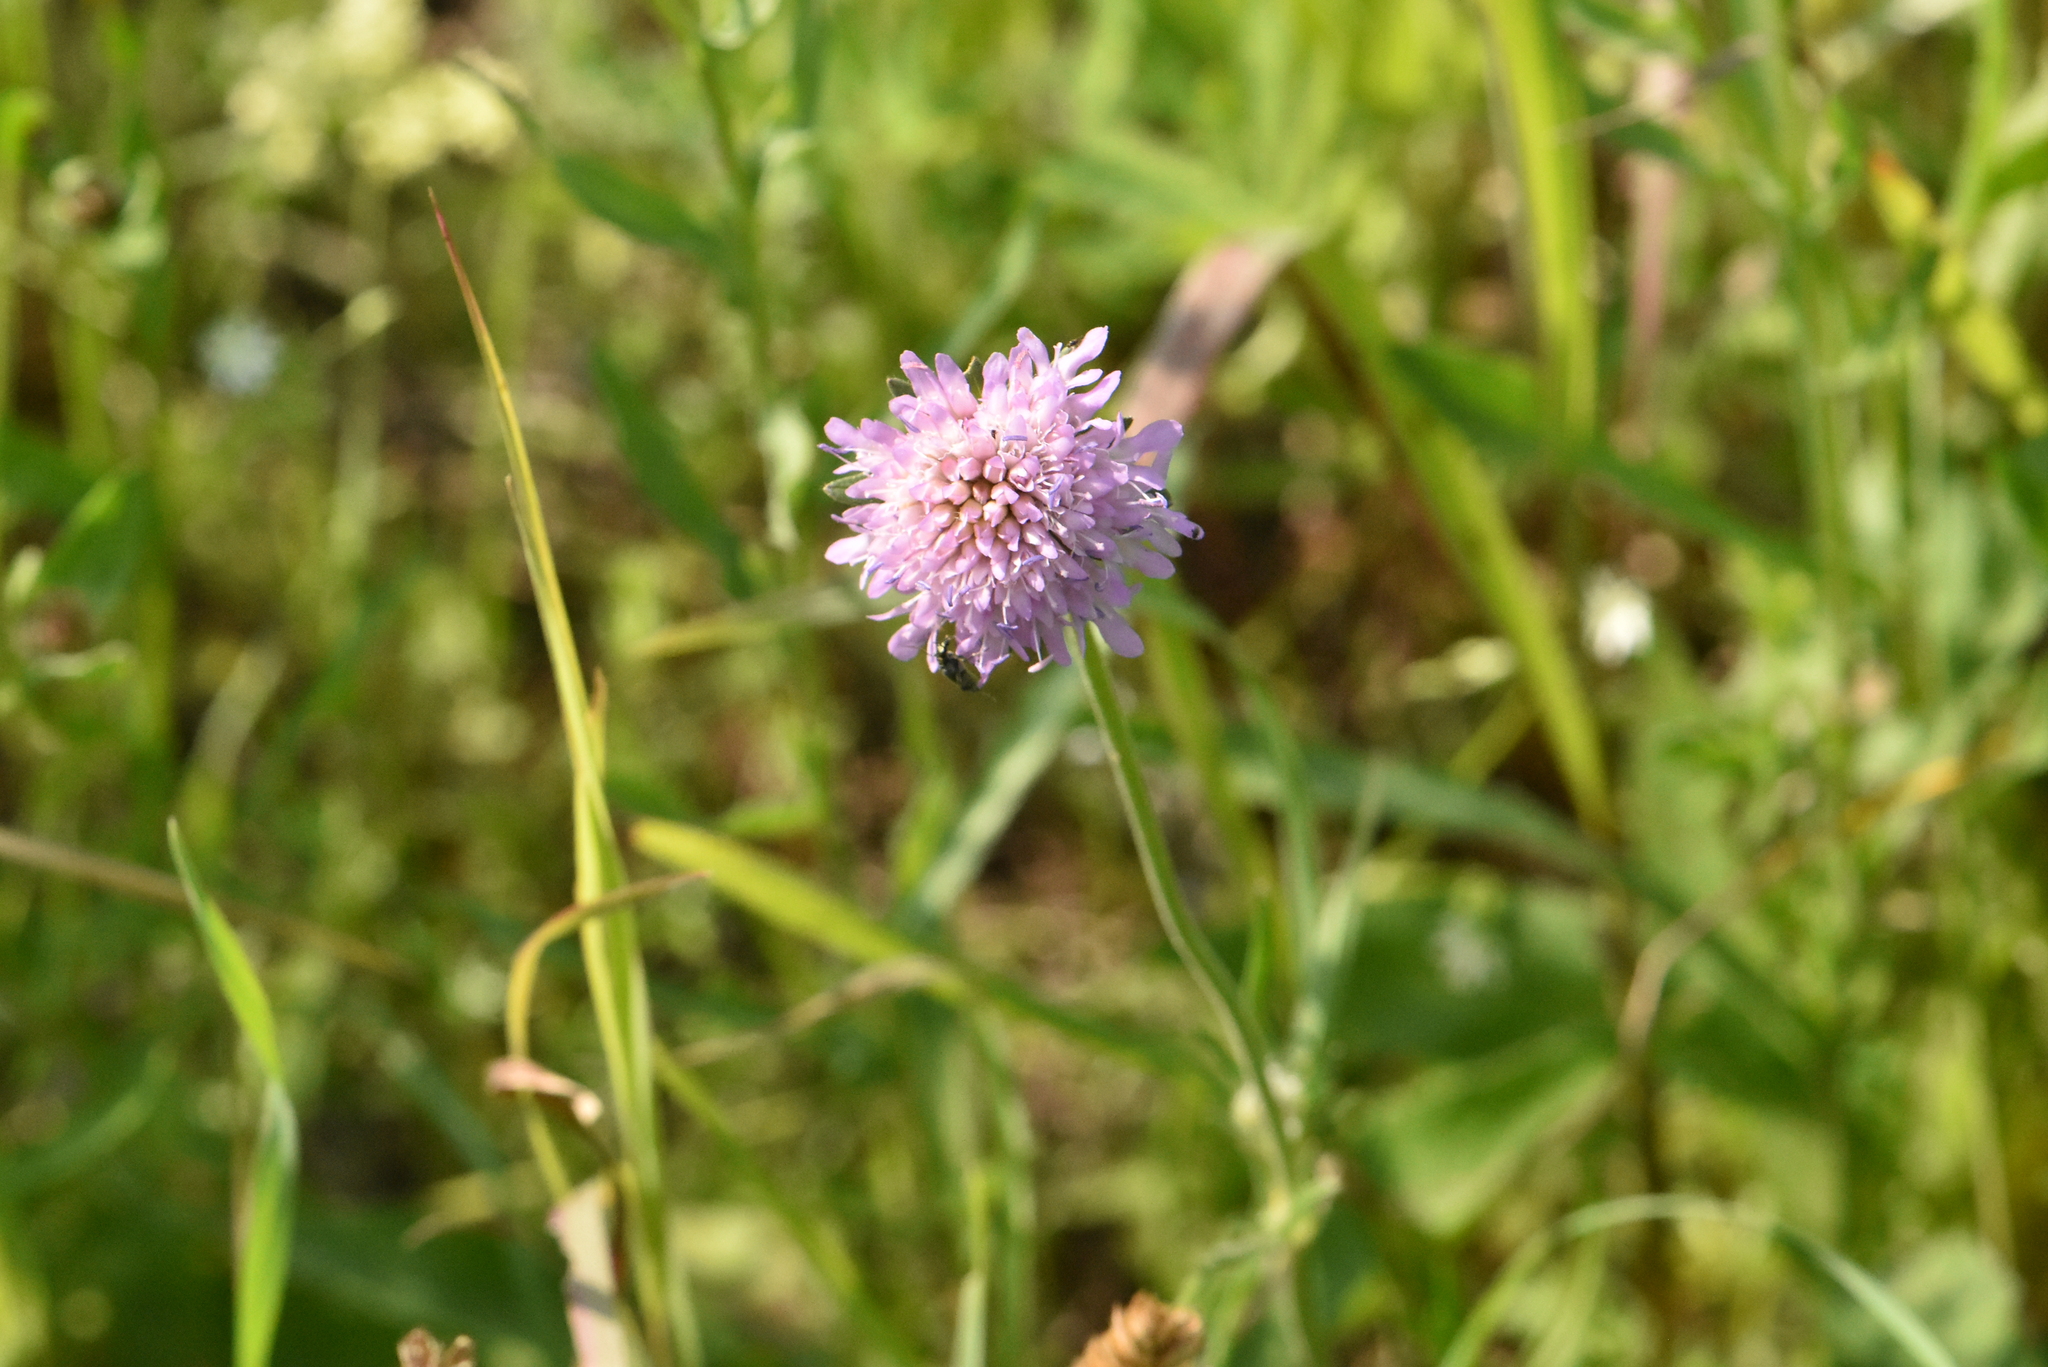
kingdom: Plantae
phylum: Tracheophyta
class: Magnoliopsida
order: Dipsacales
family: Caprifoliaceae
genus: Knautia
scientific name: Knautia arvensis
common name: Field scabiosa
